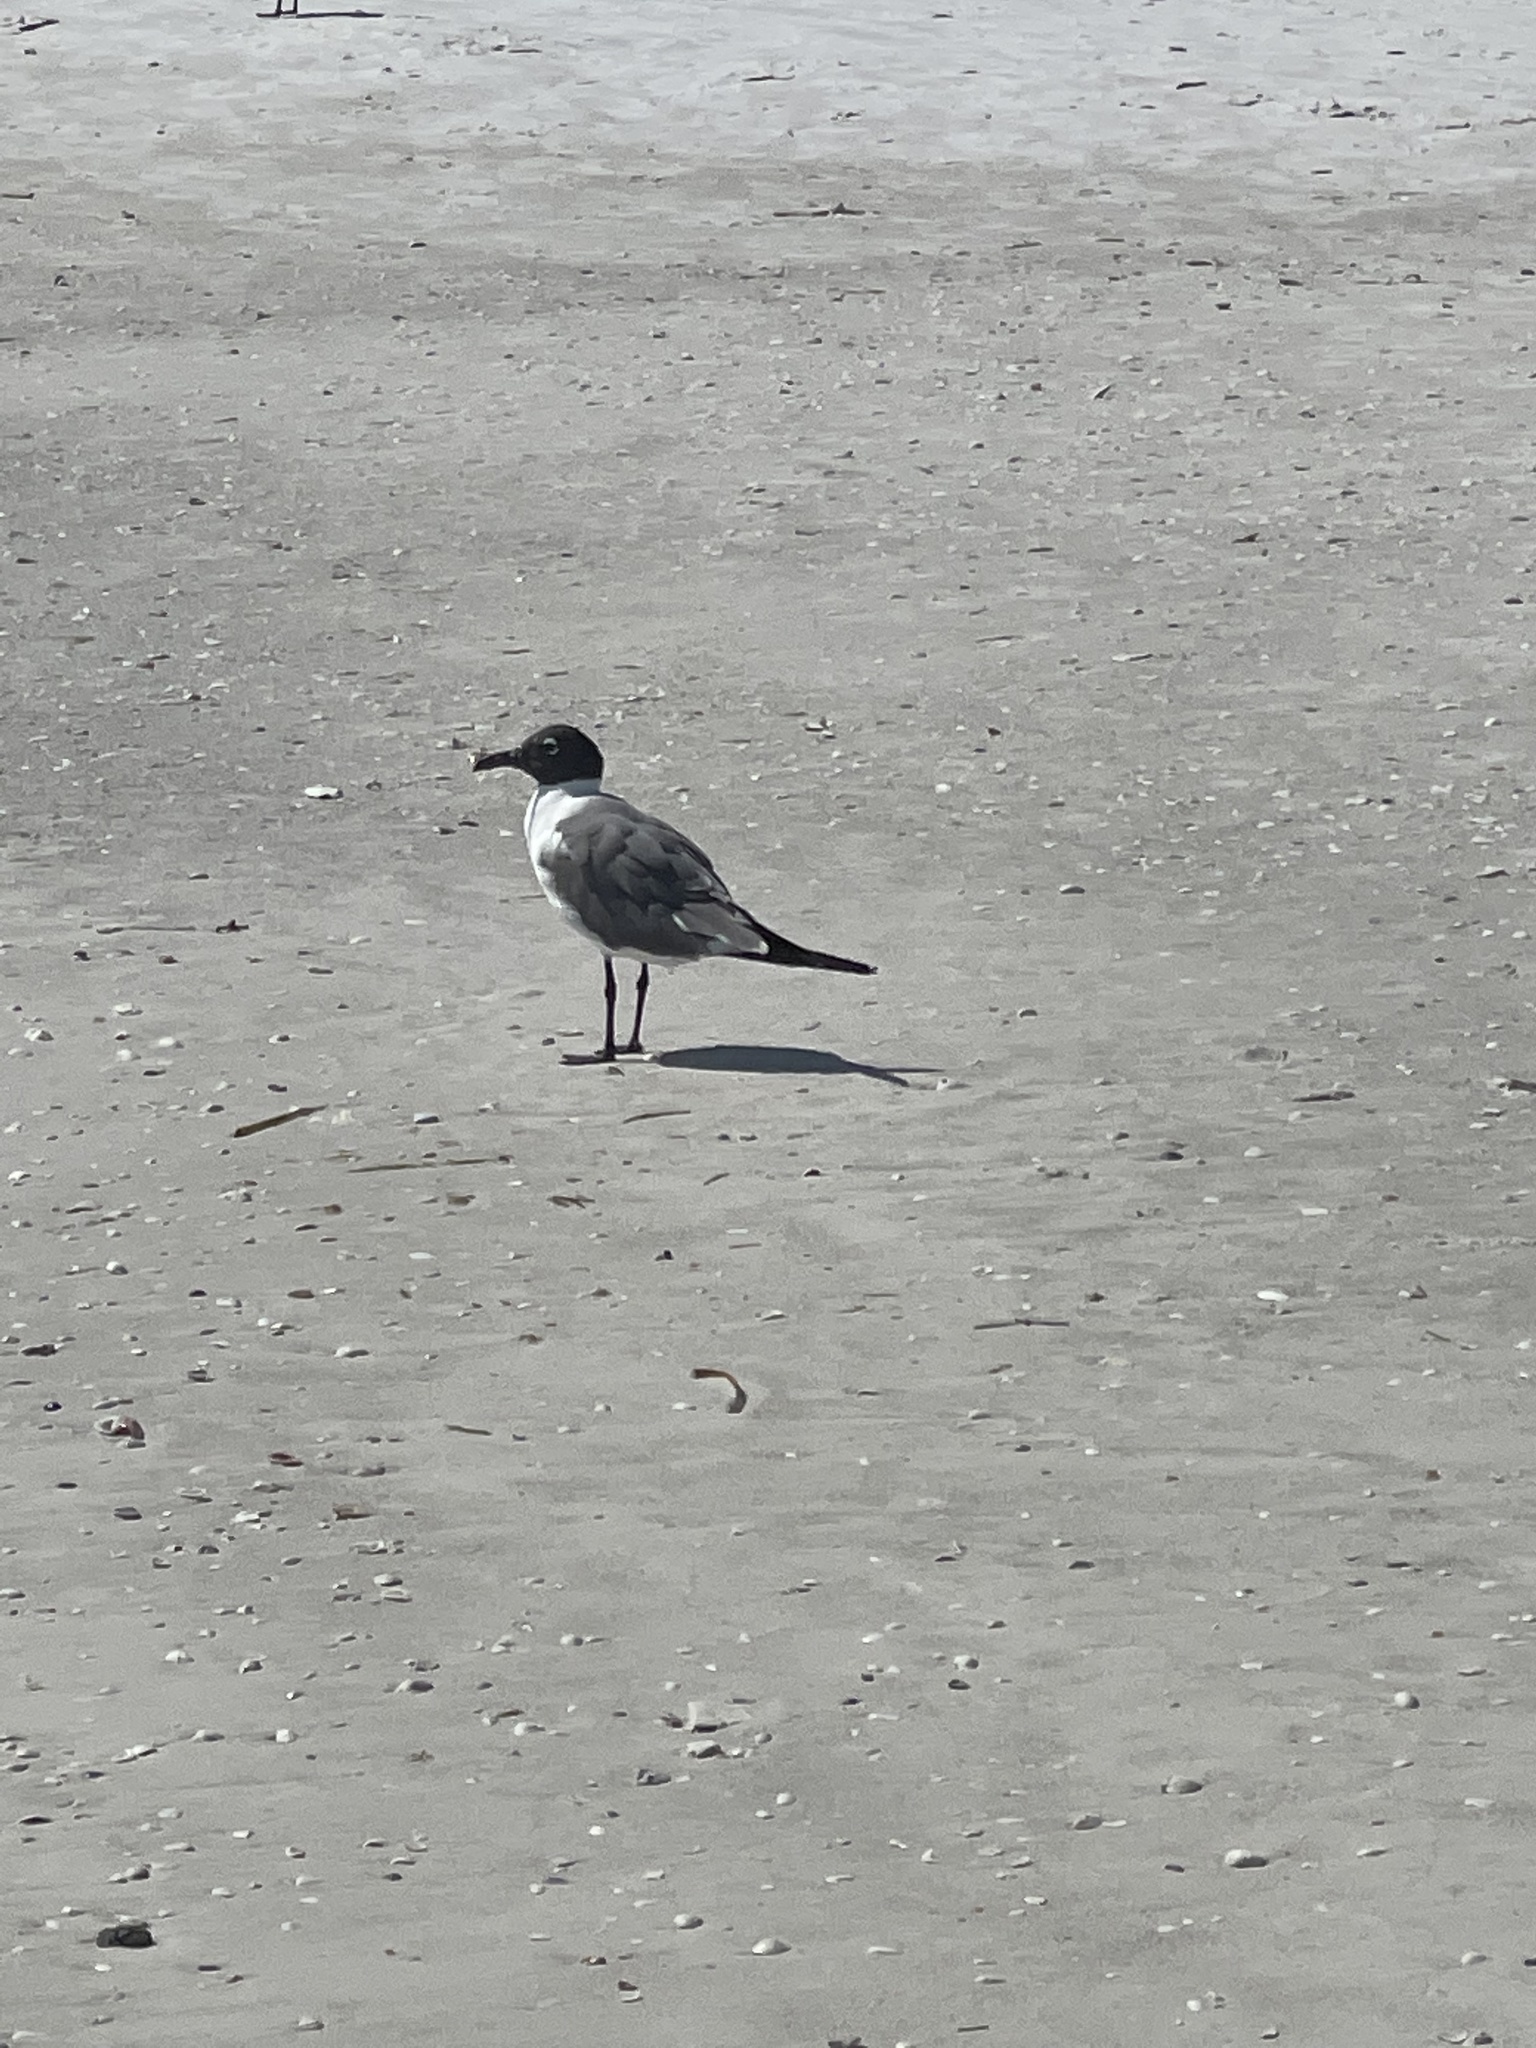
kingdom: Animalia
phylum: Chordata
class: Aves
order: Charadriiformes
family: Laridae
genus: Leucophaeus
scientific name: Leucophaeus atricilla
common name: Laughing gull
